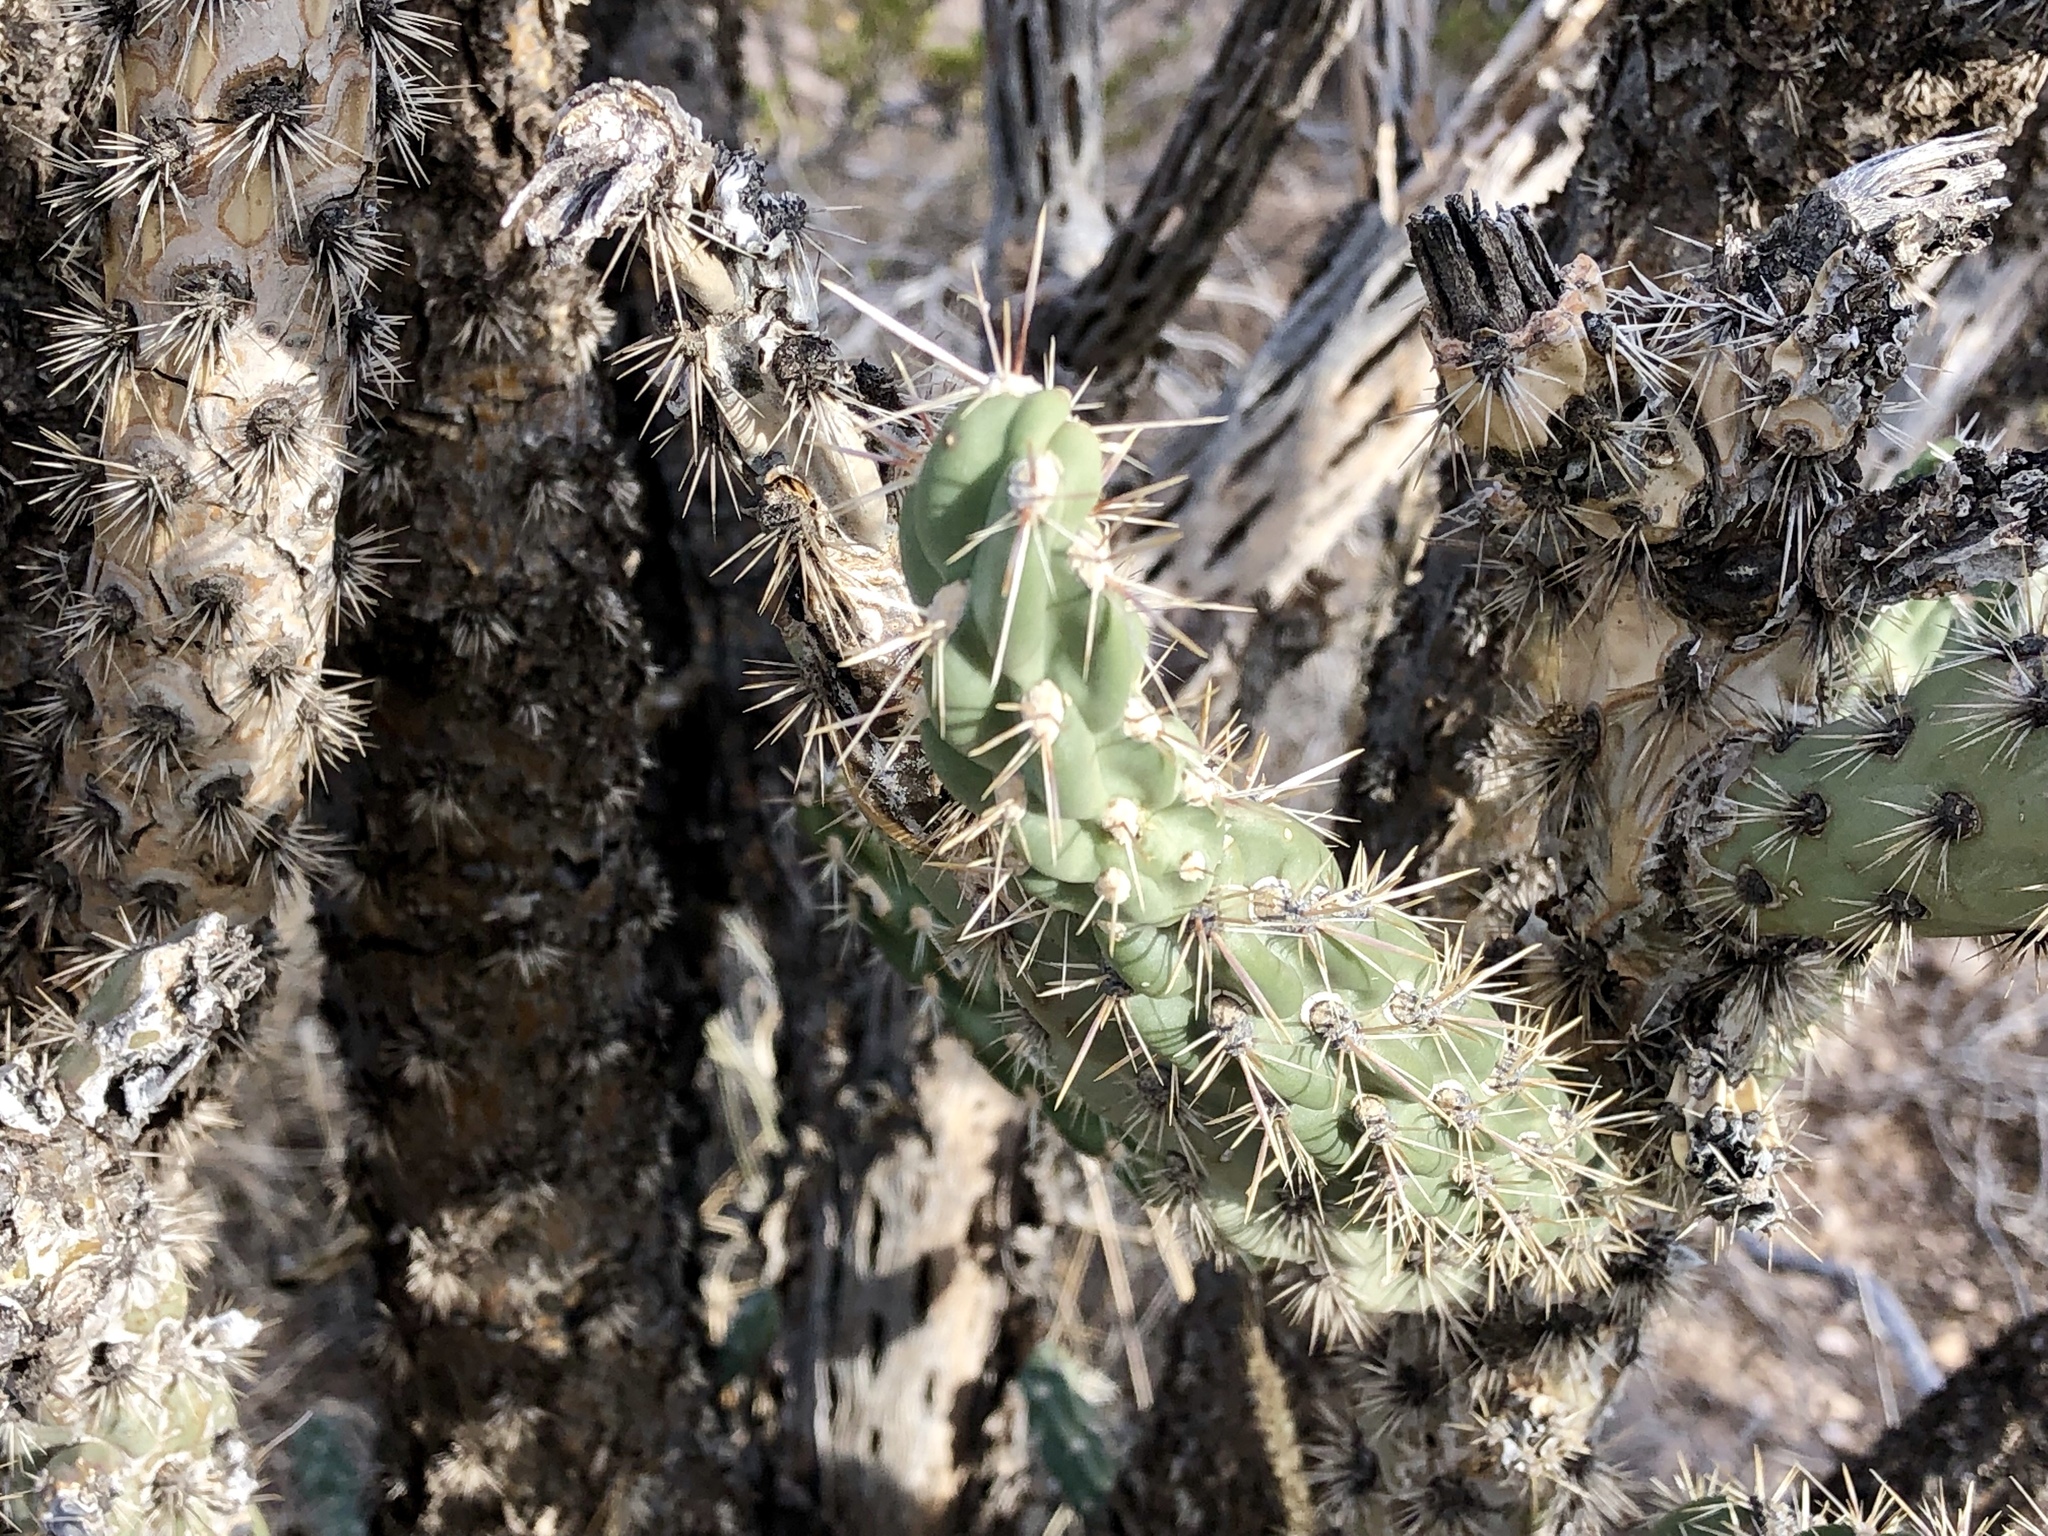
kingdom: Plantae
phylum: Tracheophyta
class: Magnoliopsida
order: Caryophyllales
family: Cactaceae
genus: Cylindropuntia
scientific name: Cylindropuntia imbricata
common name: Candelabrum cactus
